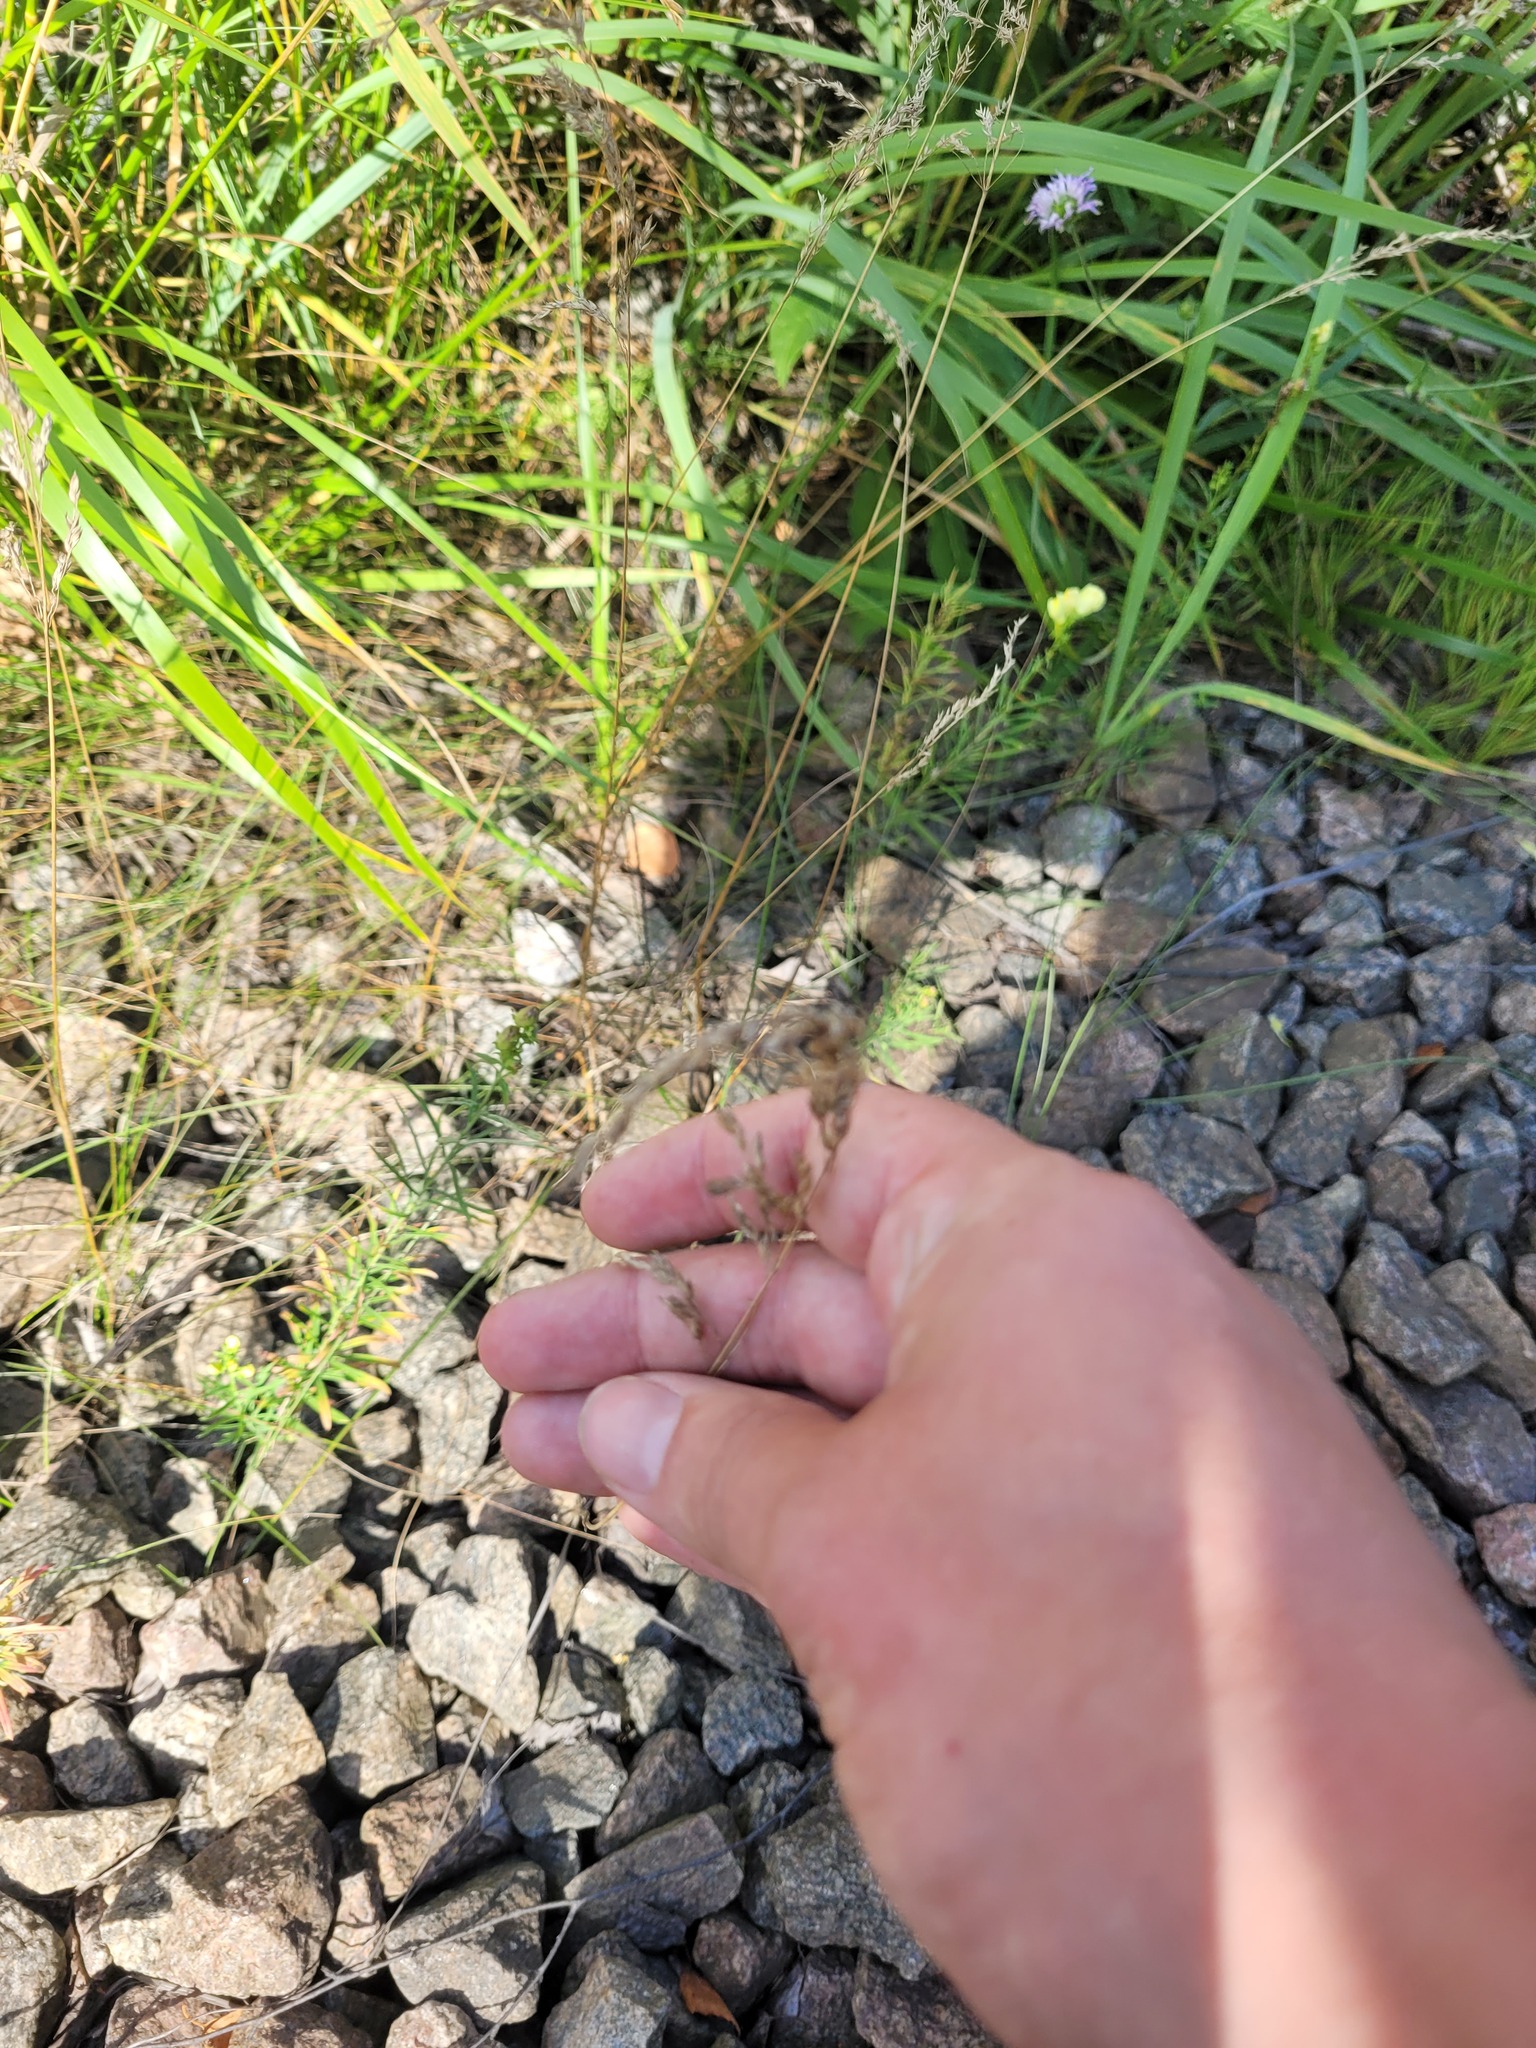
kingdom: Plantae
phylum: Tracheophyta
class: Liliopsida
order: Poales
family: Poaceae
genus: Poa
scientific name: Poa angustifolia
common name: Narrow-leaved meadow-grass
